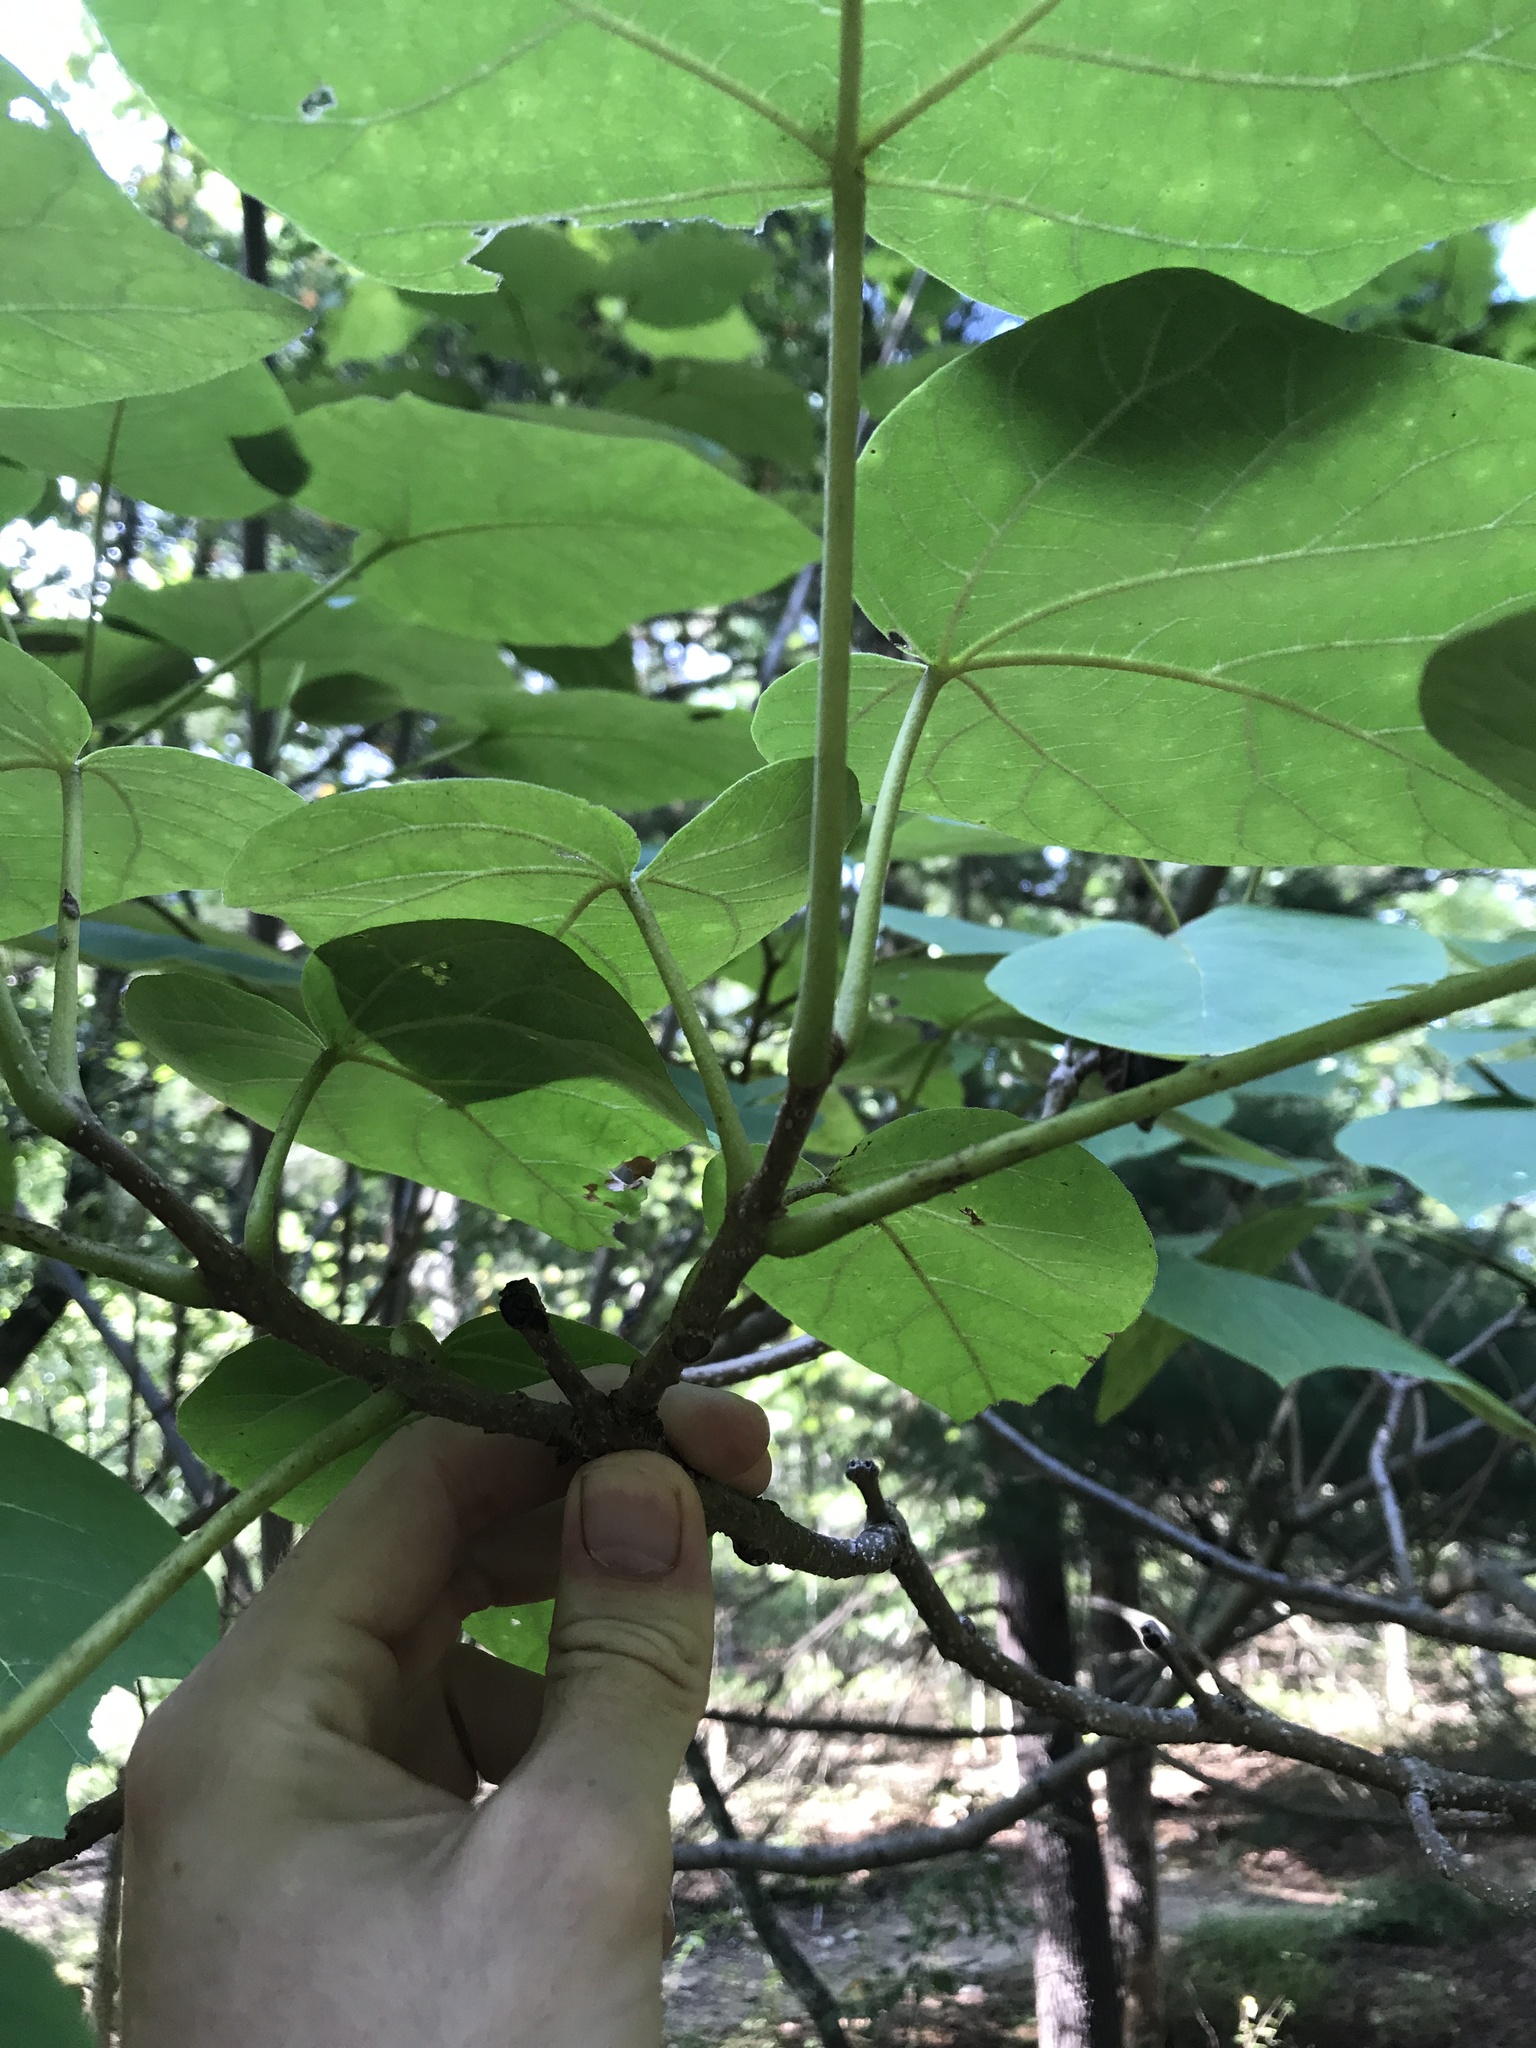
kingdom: Plantae
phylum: Tracheophyta
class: Magnoliopsida
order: Lamiales
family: Paulowniaceae
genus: Paulownia
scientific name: Paulownia tomentosa
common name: Foxglove-tree
